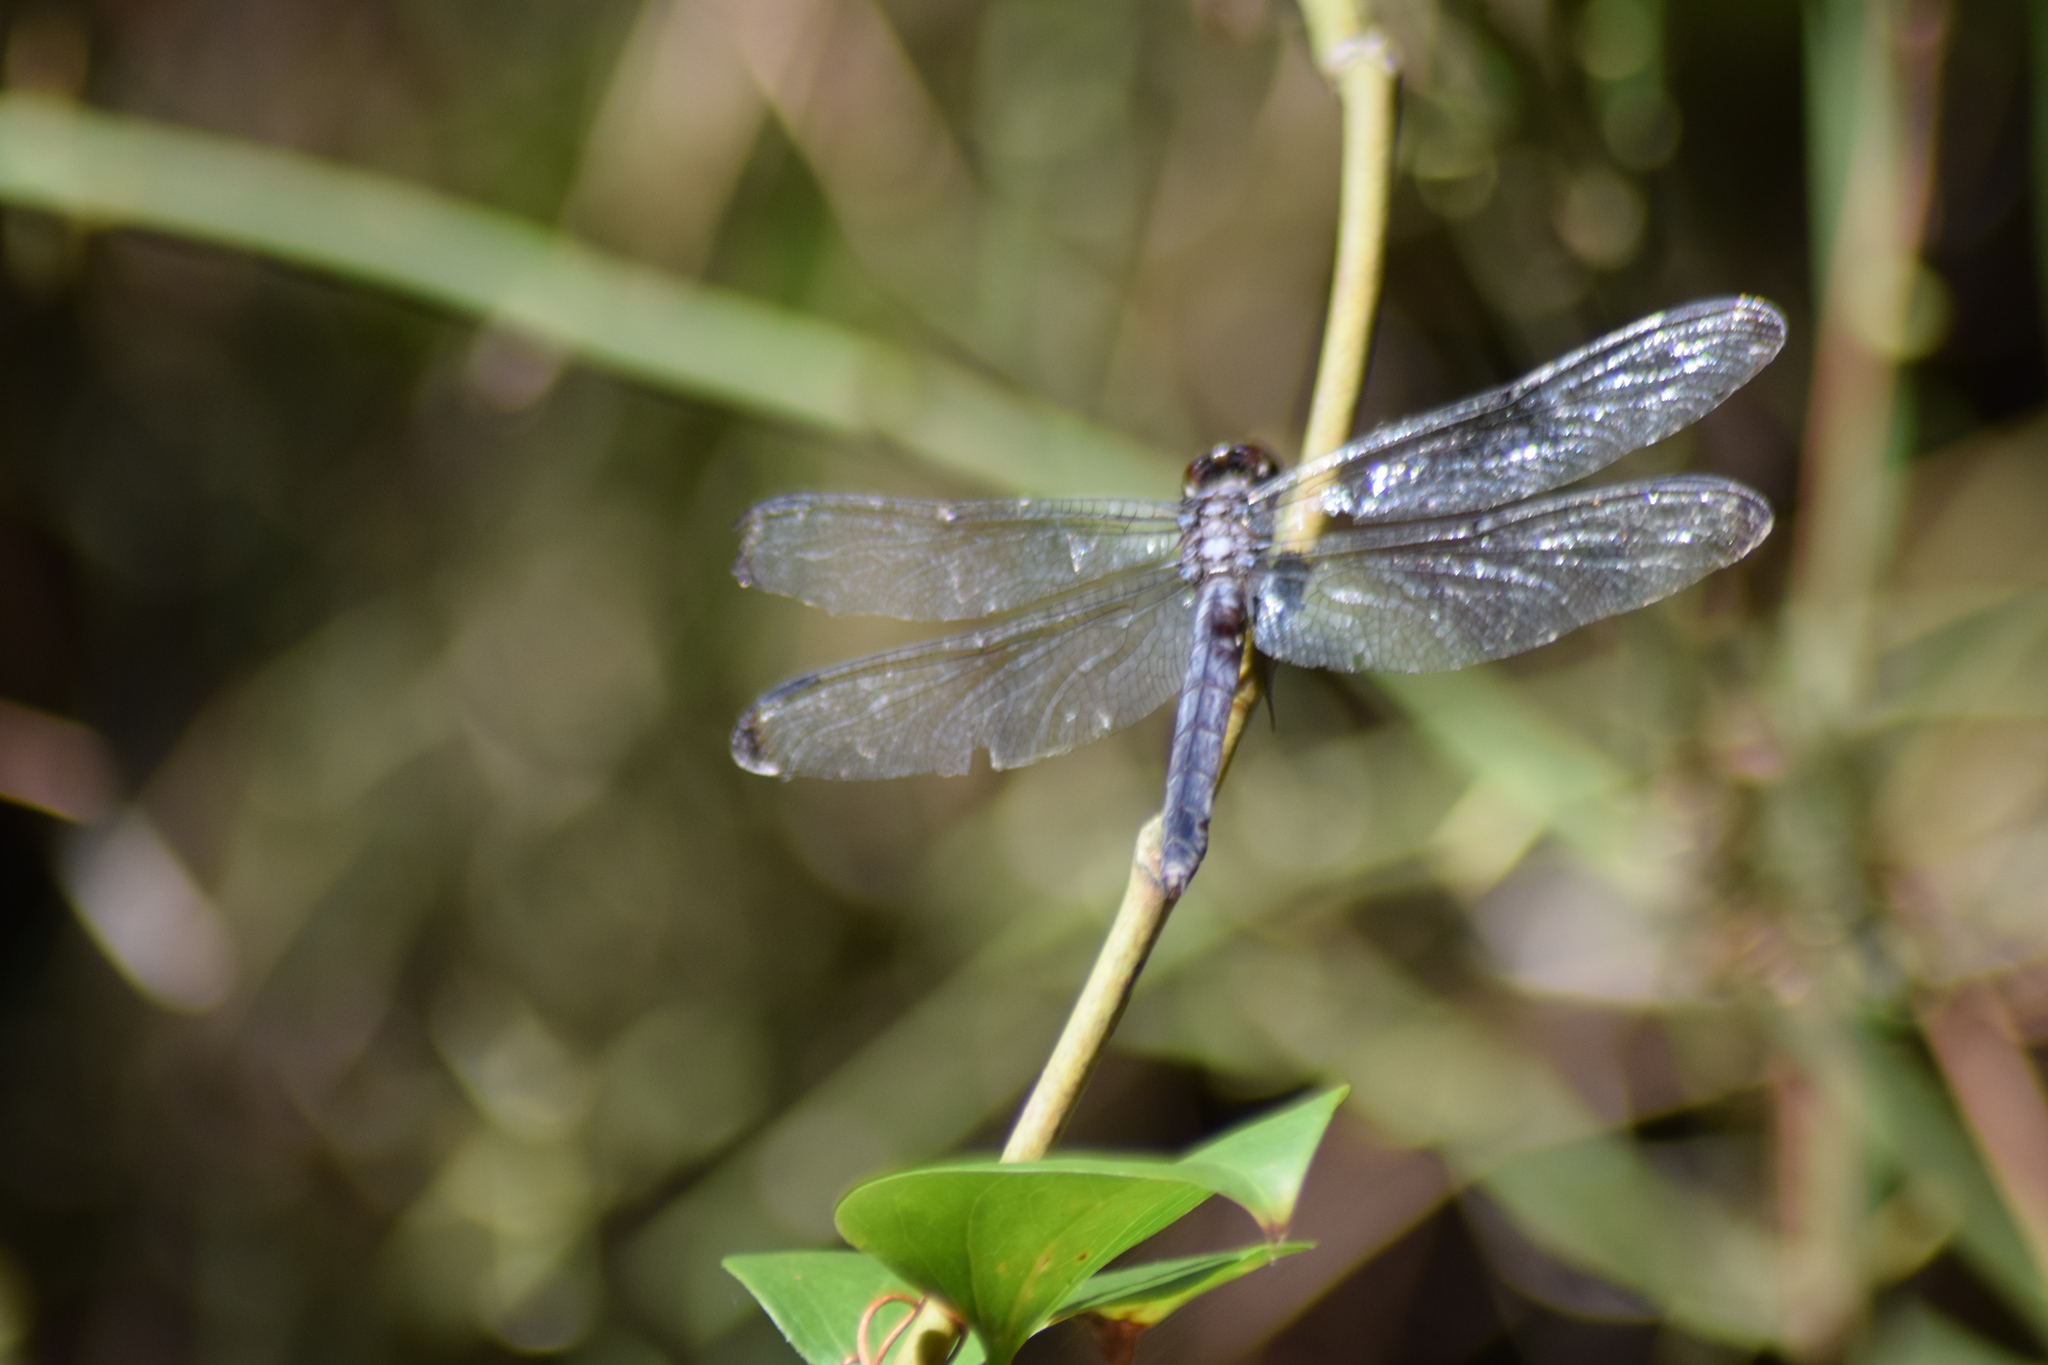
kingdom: Animalia
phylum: Arthropoda
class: Insecta
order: Odonata
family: Libellulidae
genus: Libellula
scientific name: Libellula incesta
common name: Slaty skimmer
